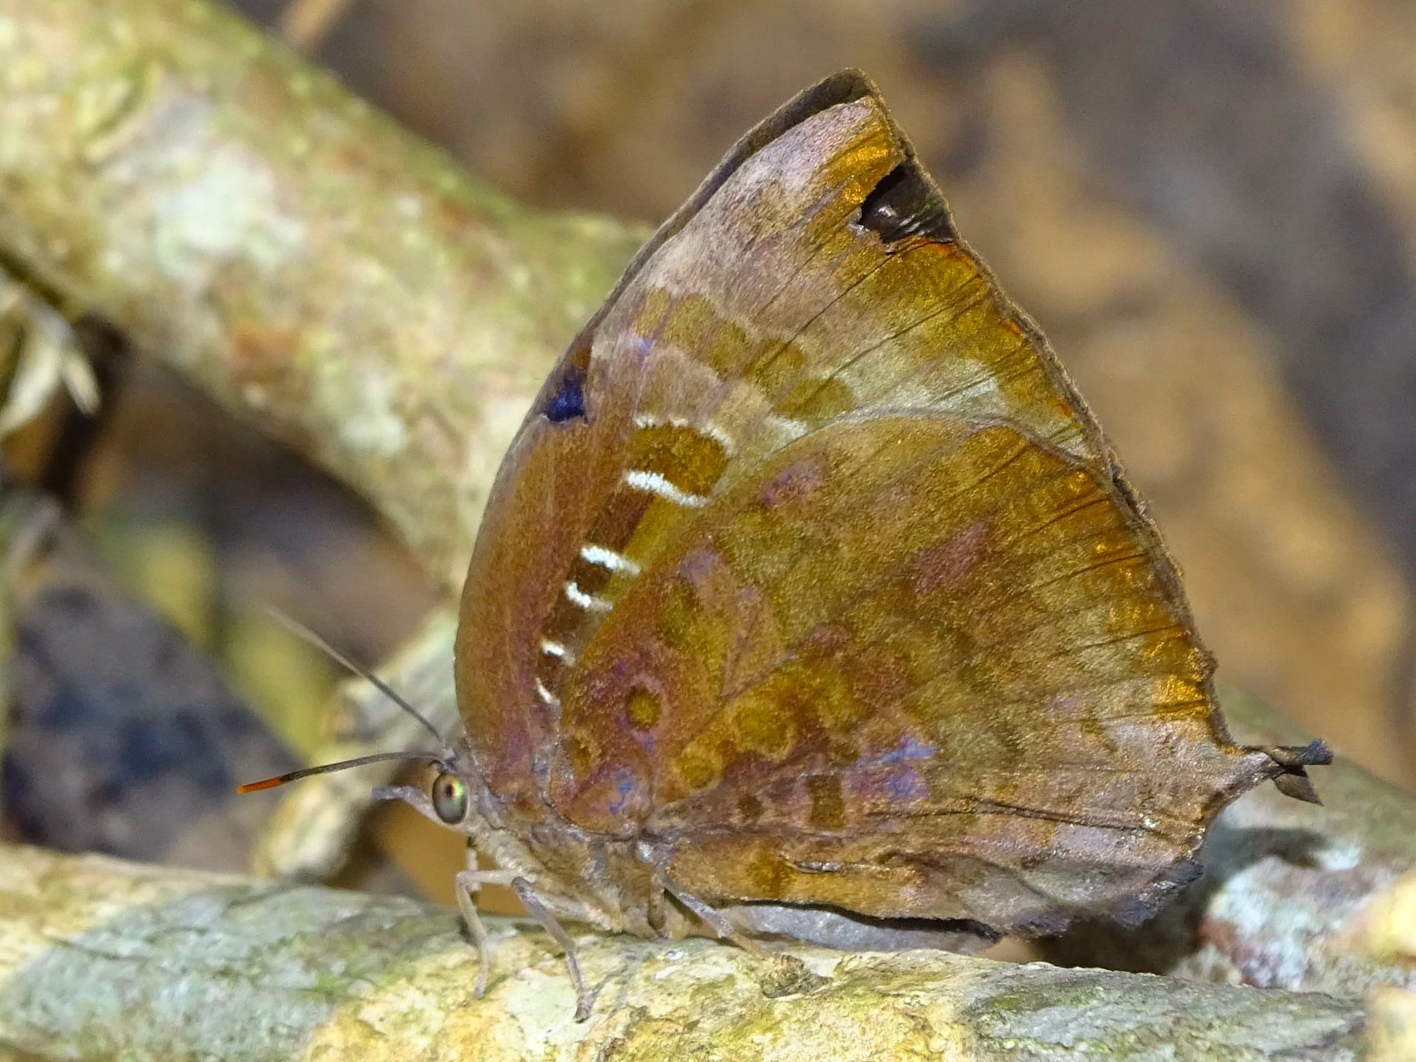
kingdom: Animalia
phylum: Arthropoda
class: Insecta
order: Lepidoptera
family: Lycaenidae
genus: Arhopala
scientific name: Arhopala centaurus
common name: Dull oak-blue
